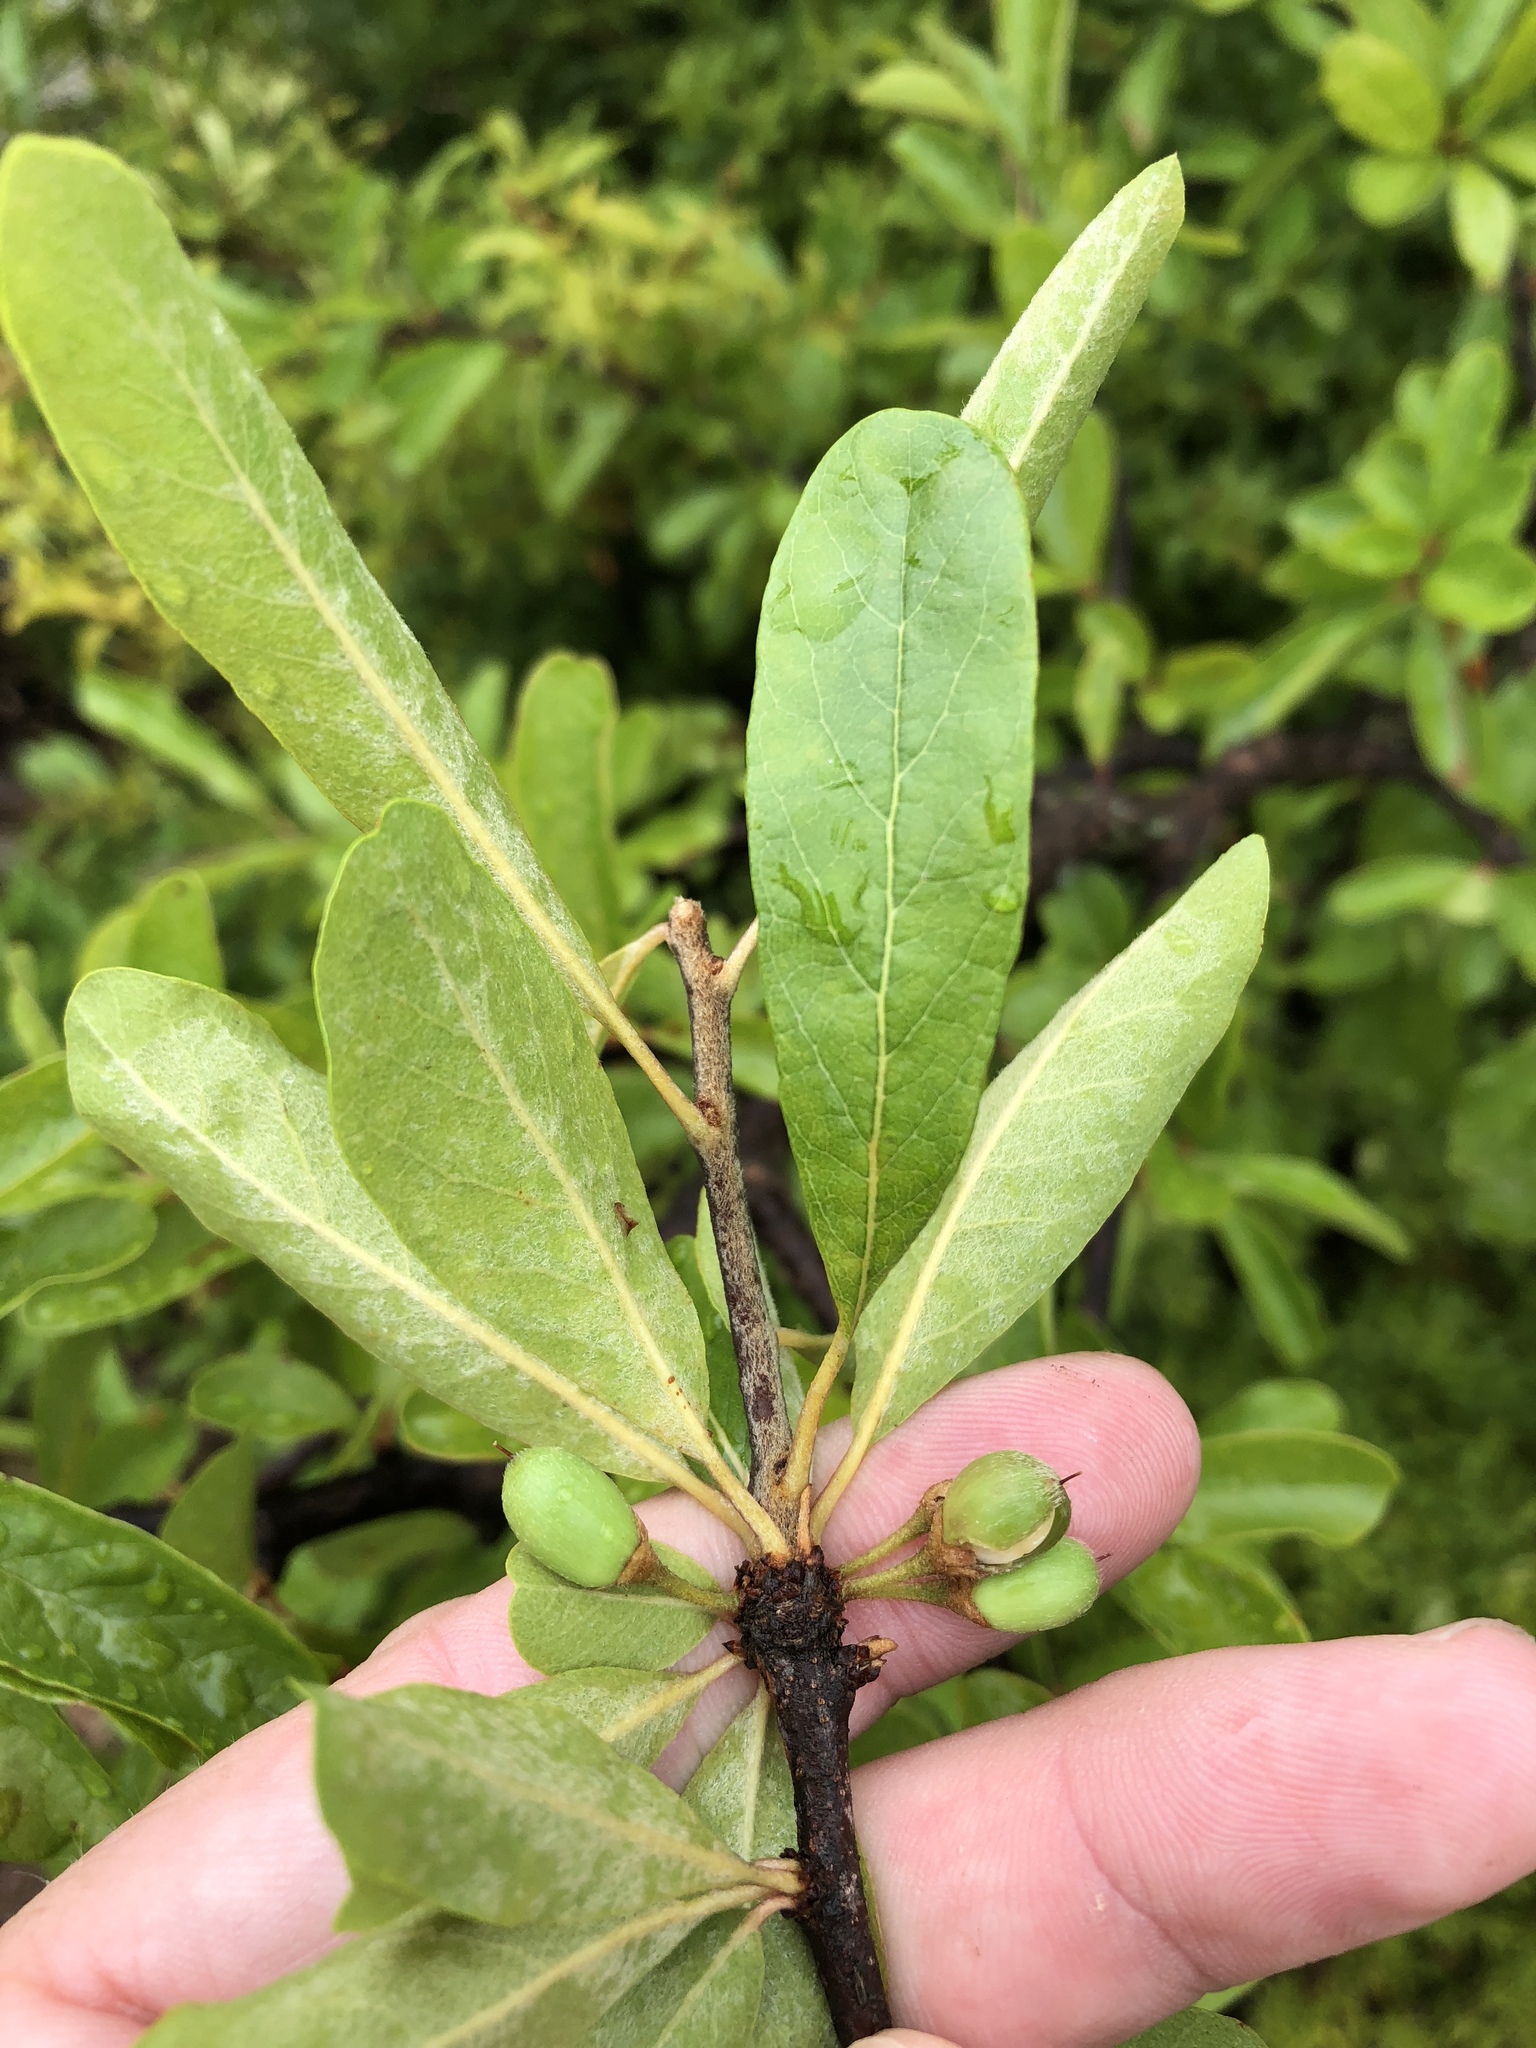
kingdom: Plantae
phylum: Tracheophyta
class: Magnoliopsida
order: Ericales
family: Sapotaceae
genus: Sideroxylon
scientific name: Sideroxylon lanuginosum
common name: Chittamwood
